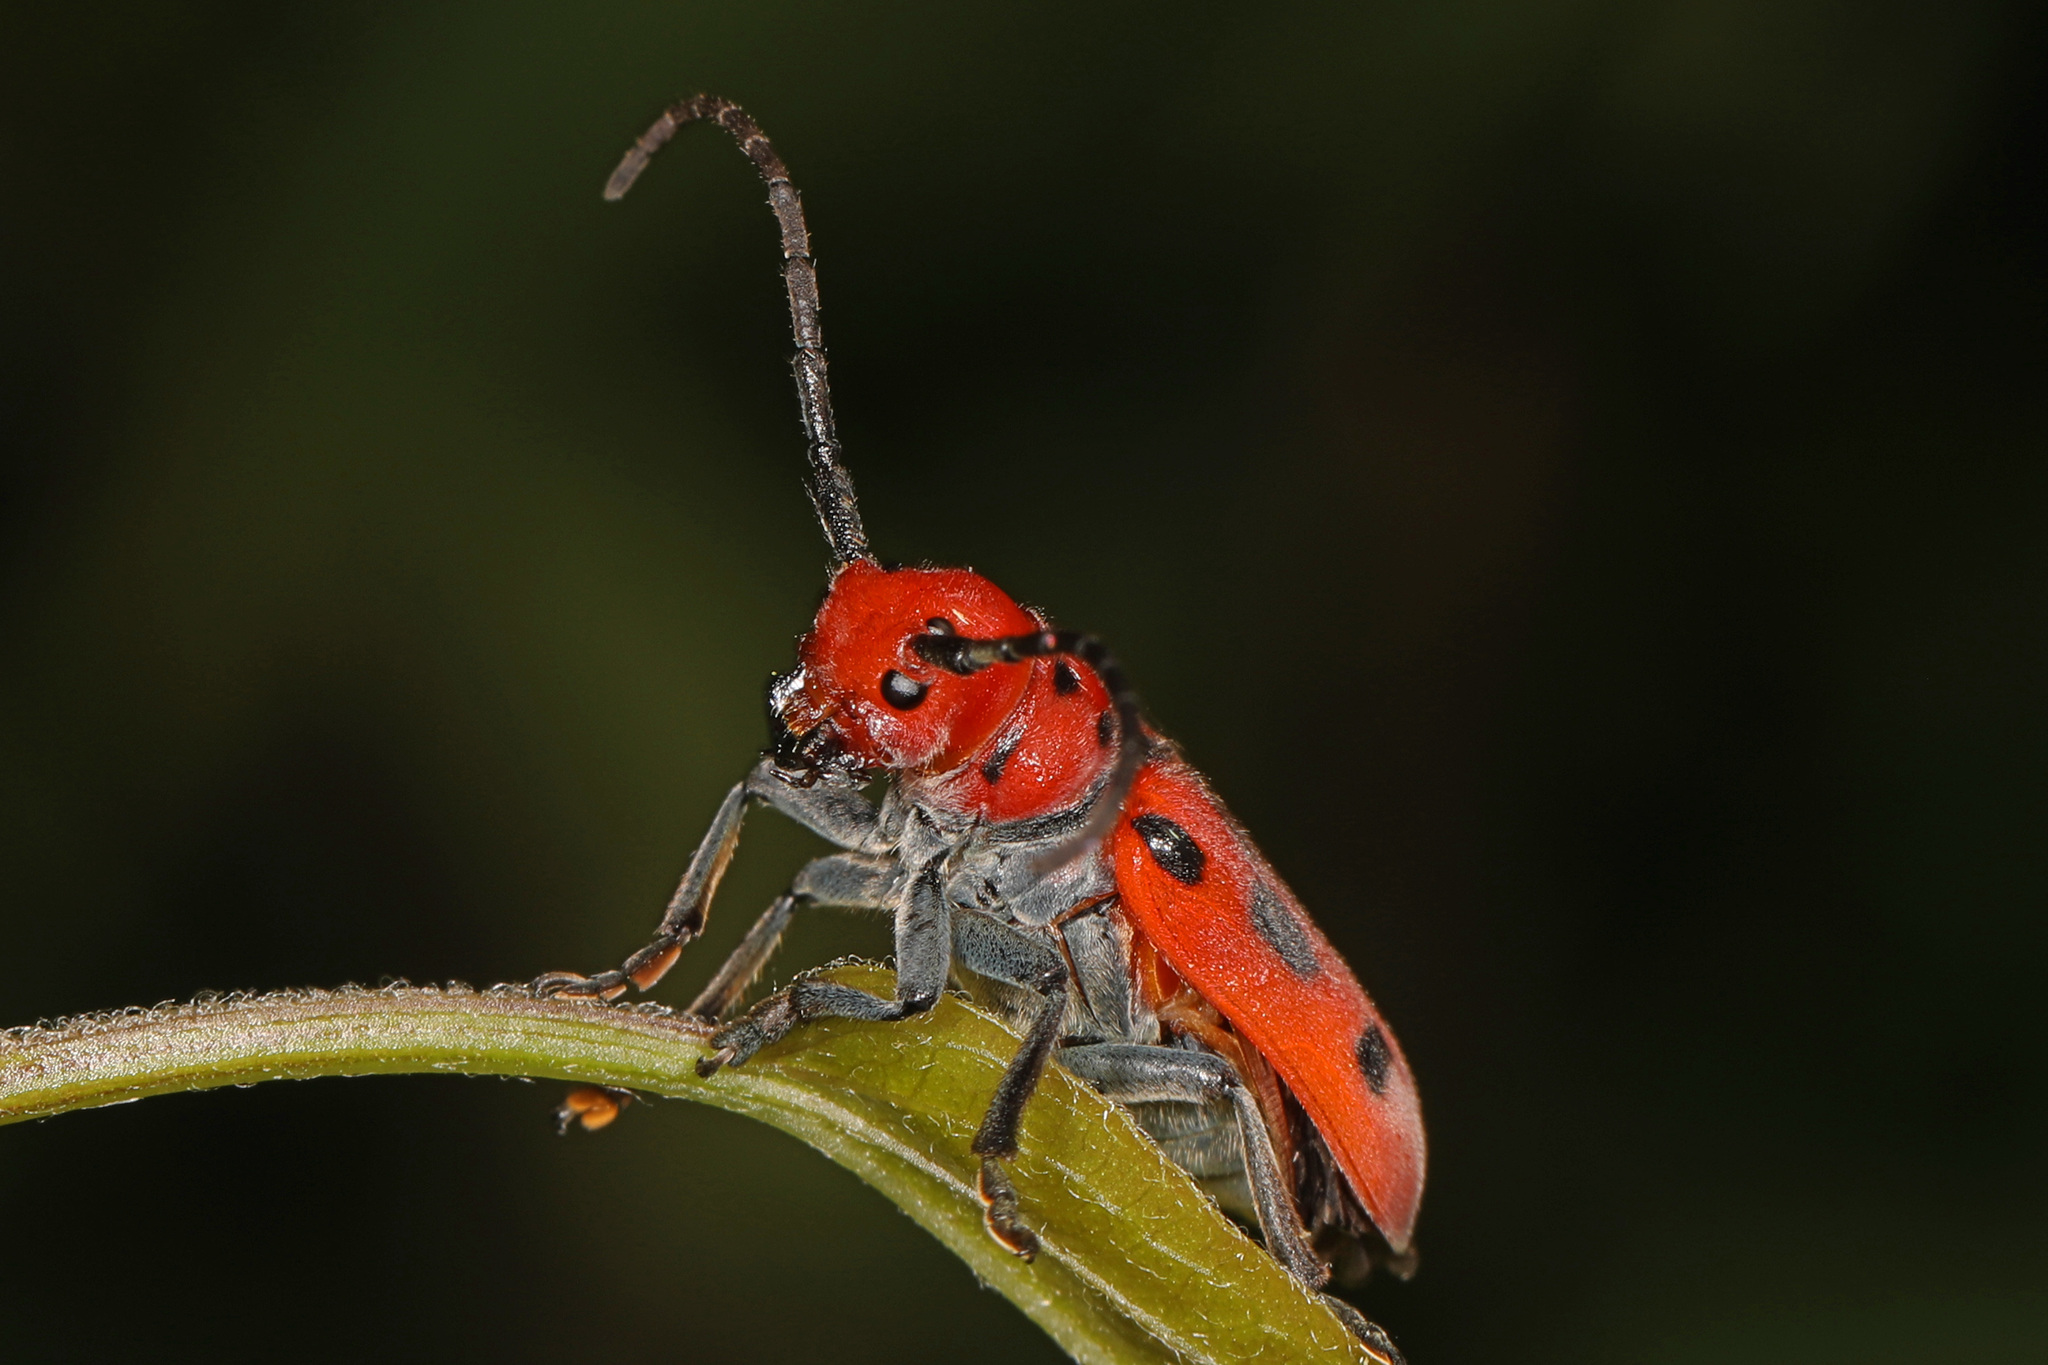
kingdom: Animalia
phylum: Arthropoda
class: Insecta
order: Coleoptera
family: Cerambycidae
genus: Tetraopes
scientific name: Tetraopes tetrophthalmus
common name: Red milkweed beetle
